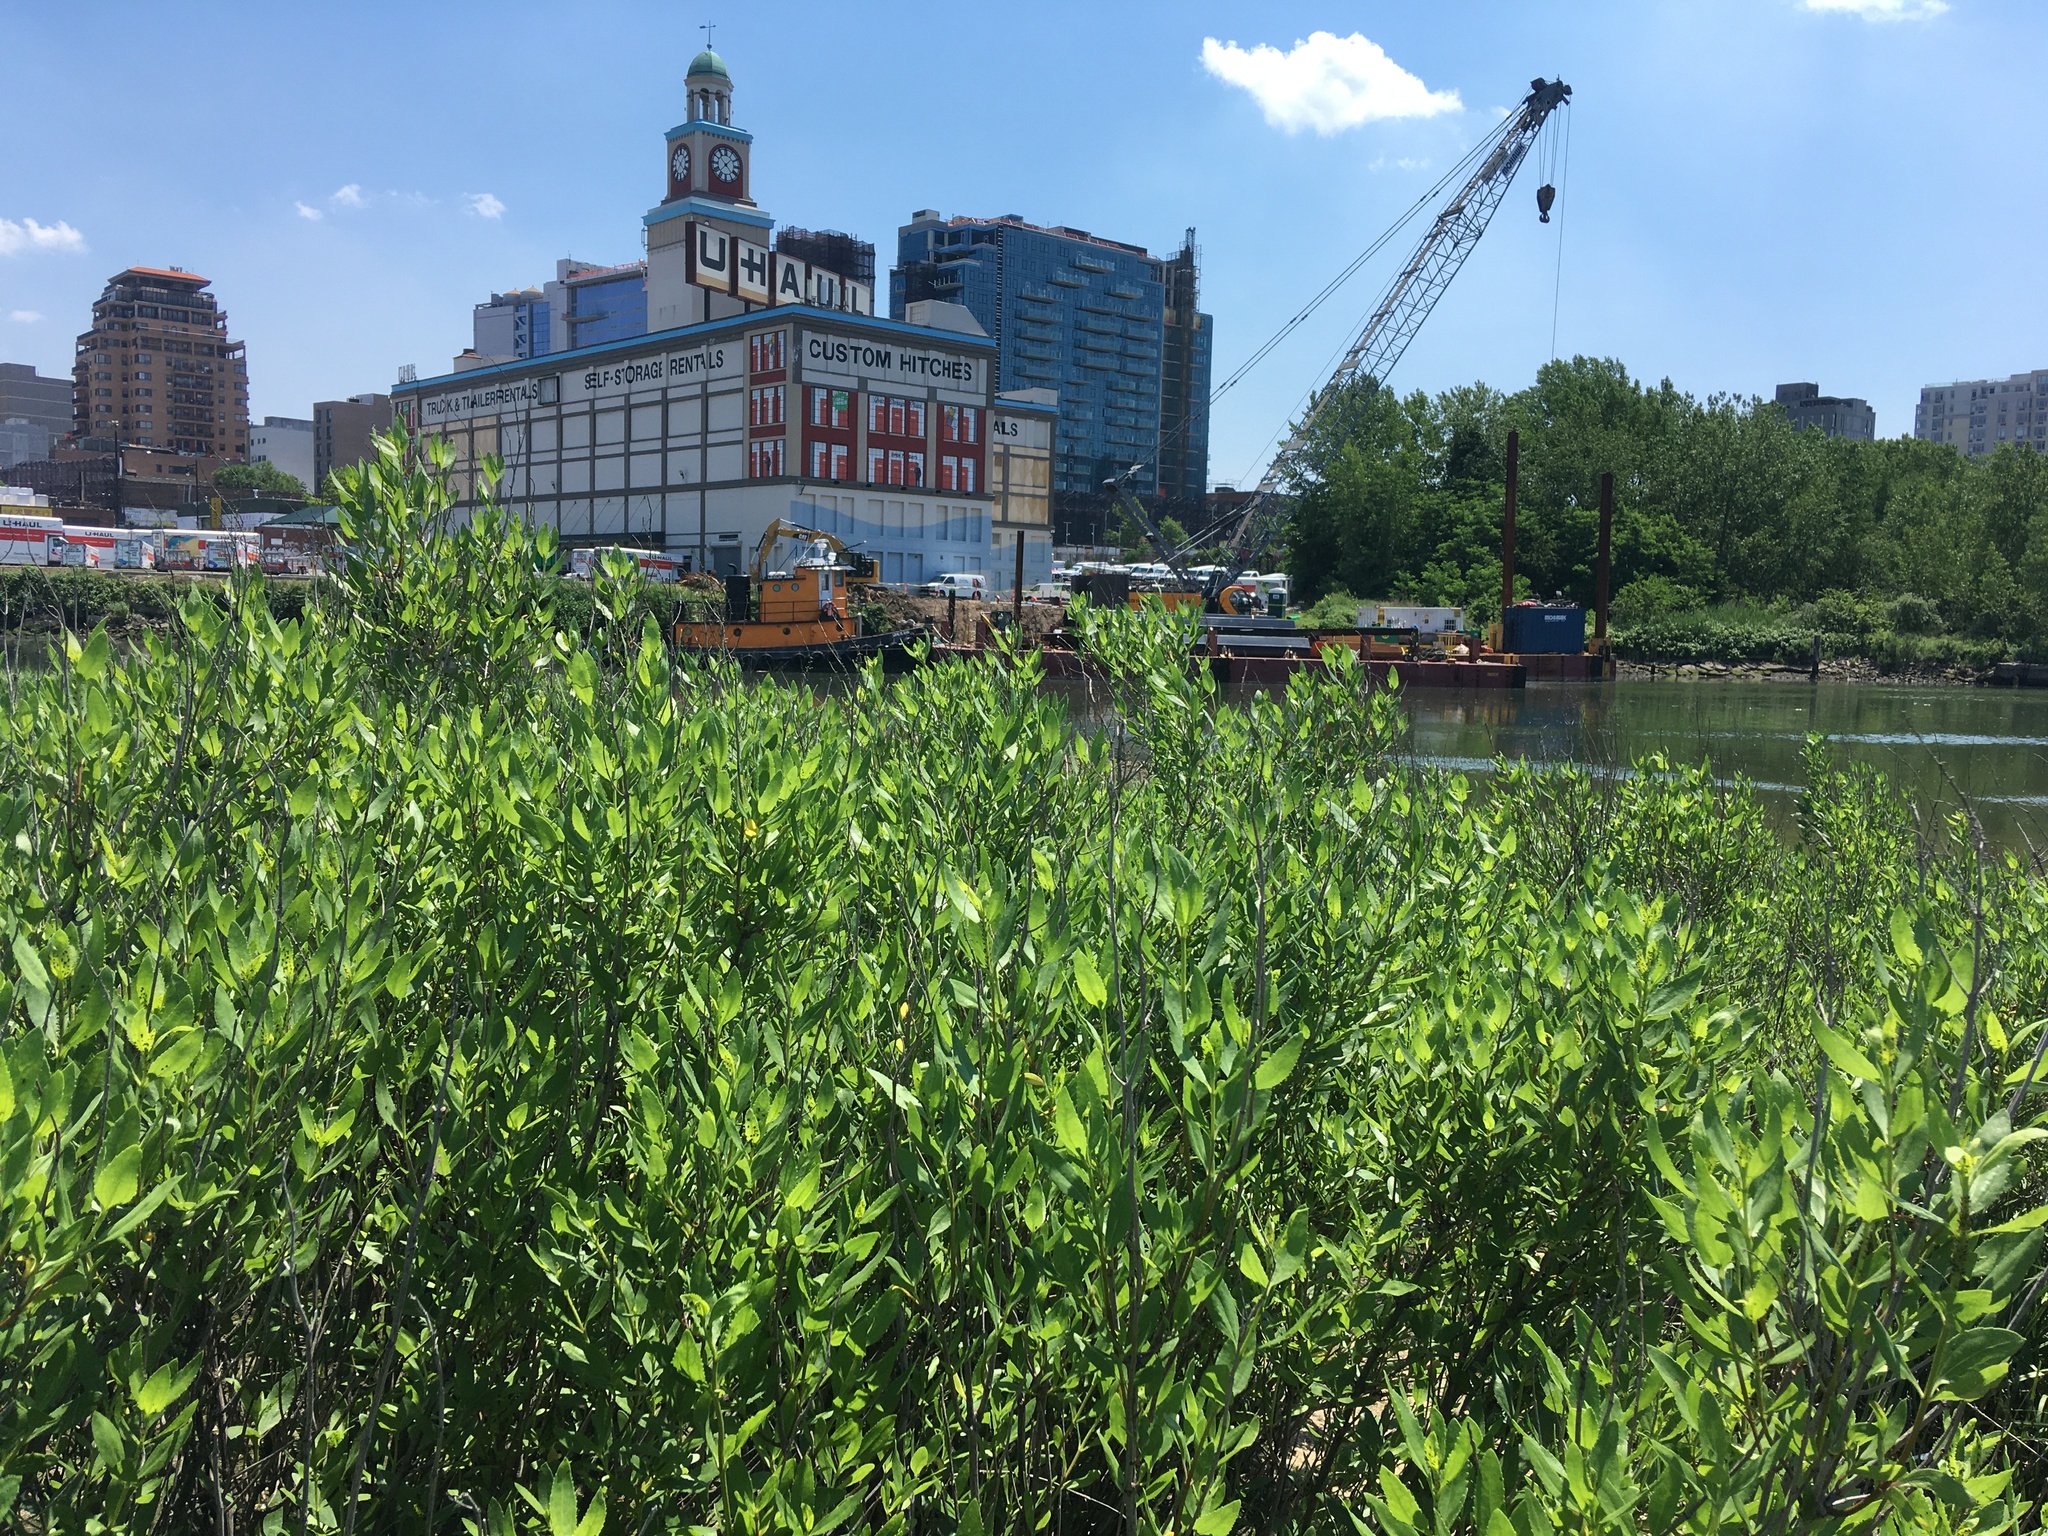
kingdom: Plantae
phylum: Tracheophyta
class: Magnoliopsida
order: Asterales
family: Asteraceae
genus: Iva
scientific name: Iva frutescens
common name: Big-leaved marsh-elder
